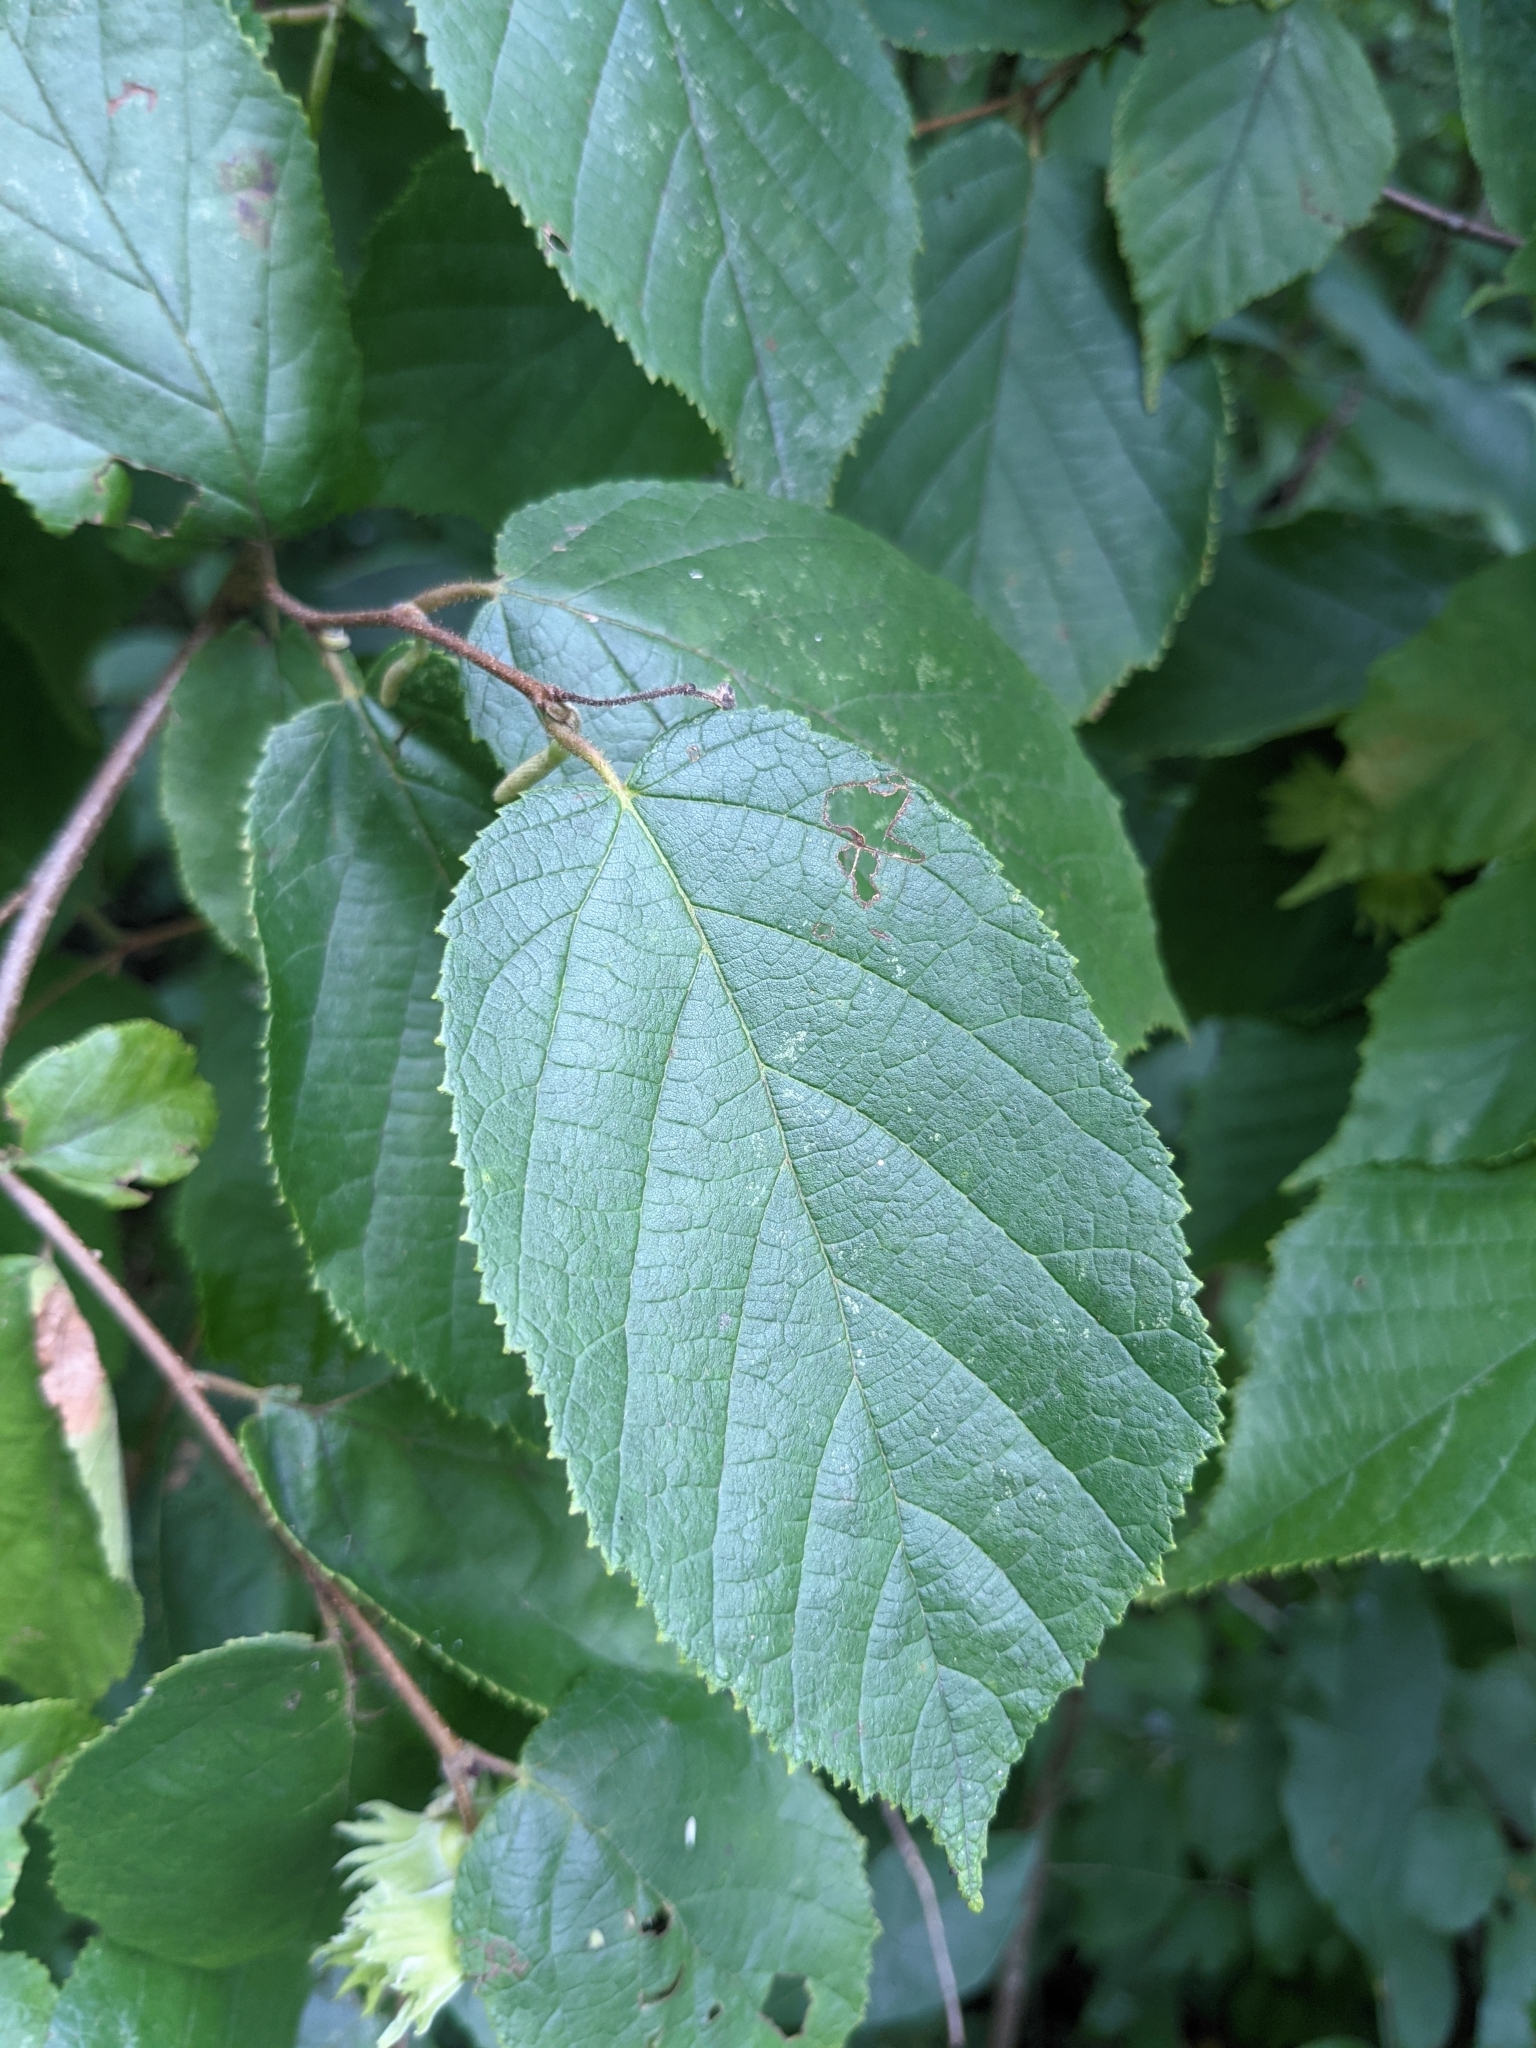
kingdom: Plantae
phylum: Tracheophyta
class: Magnoliopsida
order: Fagales
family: Betulaceae
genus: Corylus
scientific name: Corylus americana
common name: American hazel
